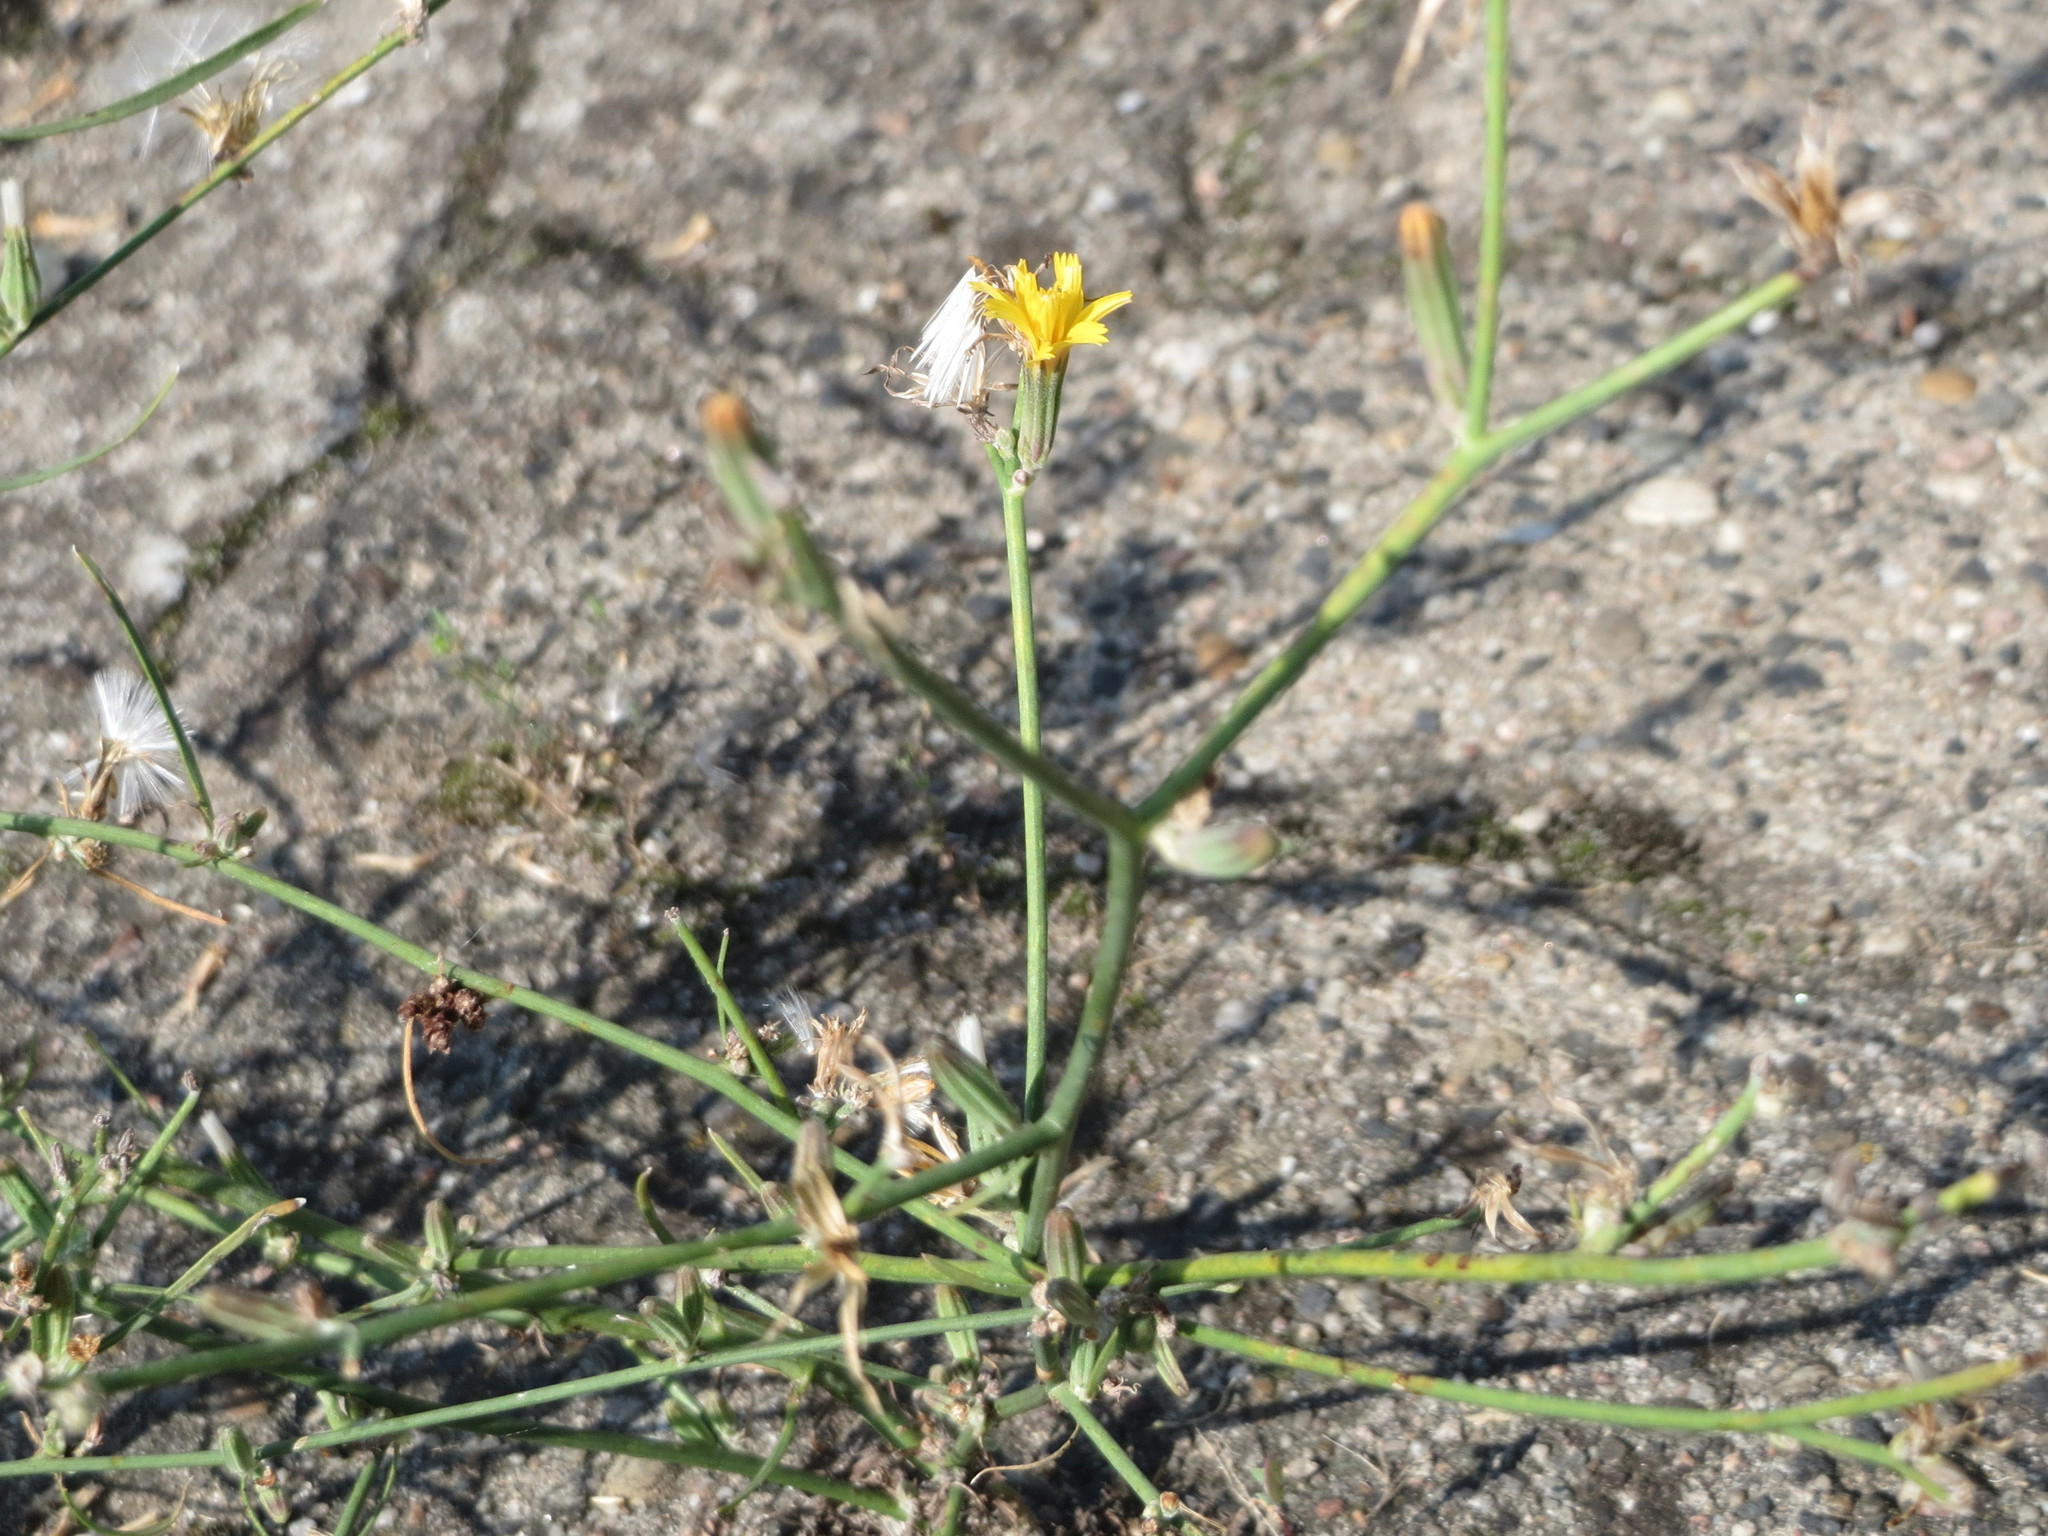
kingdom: Plantae
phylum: Tracheophyta
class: Magnoliopsida
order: Asterales
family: Asteraceae
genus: Chondrilla
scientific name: Chondrilla juncea
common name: Skeleton weed
